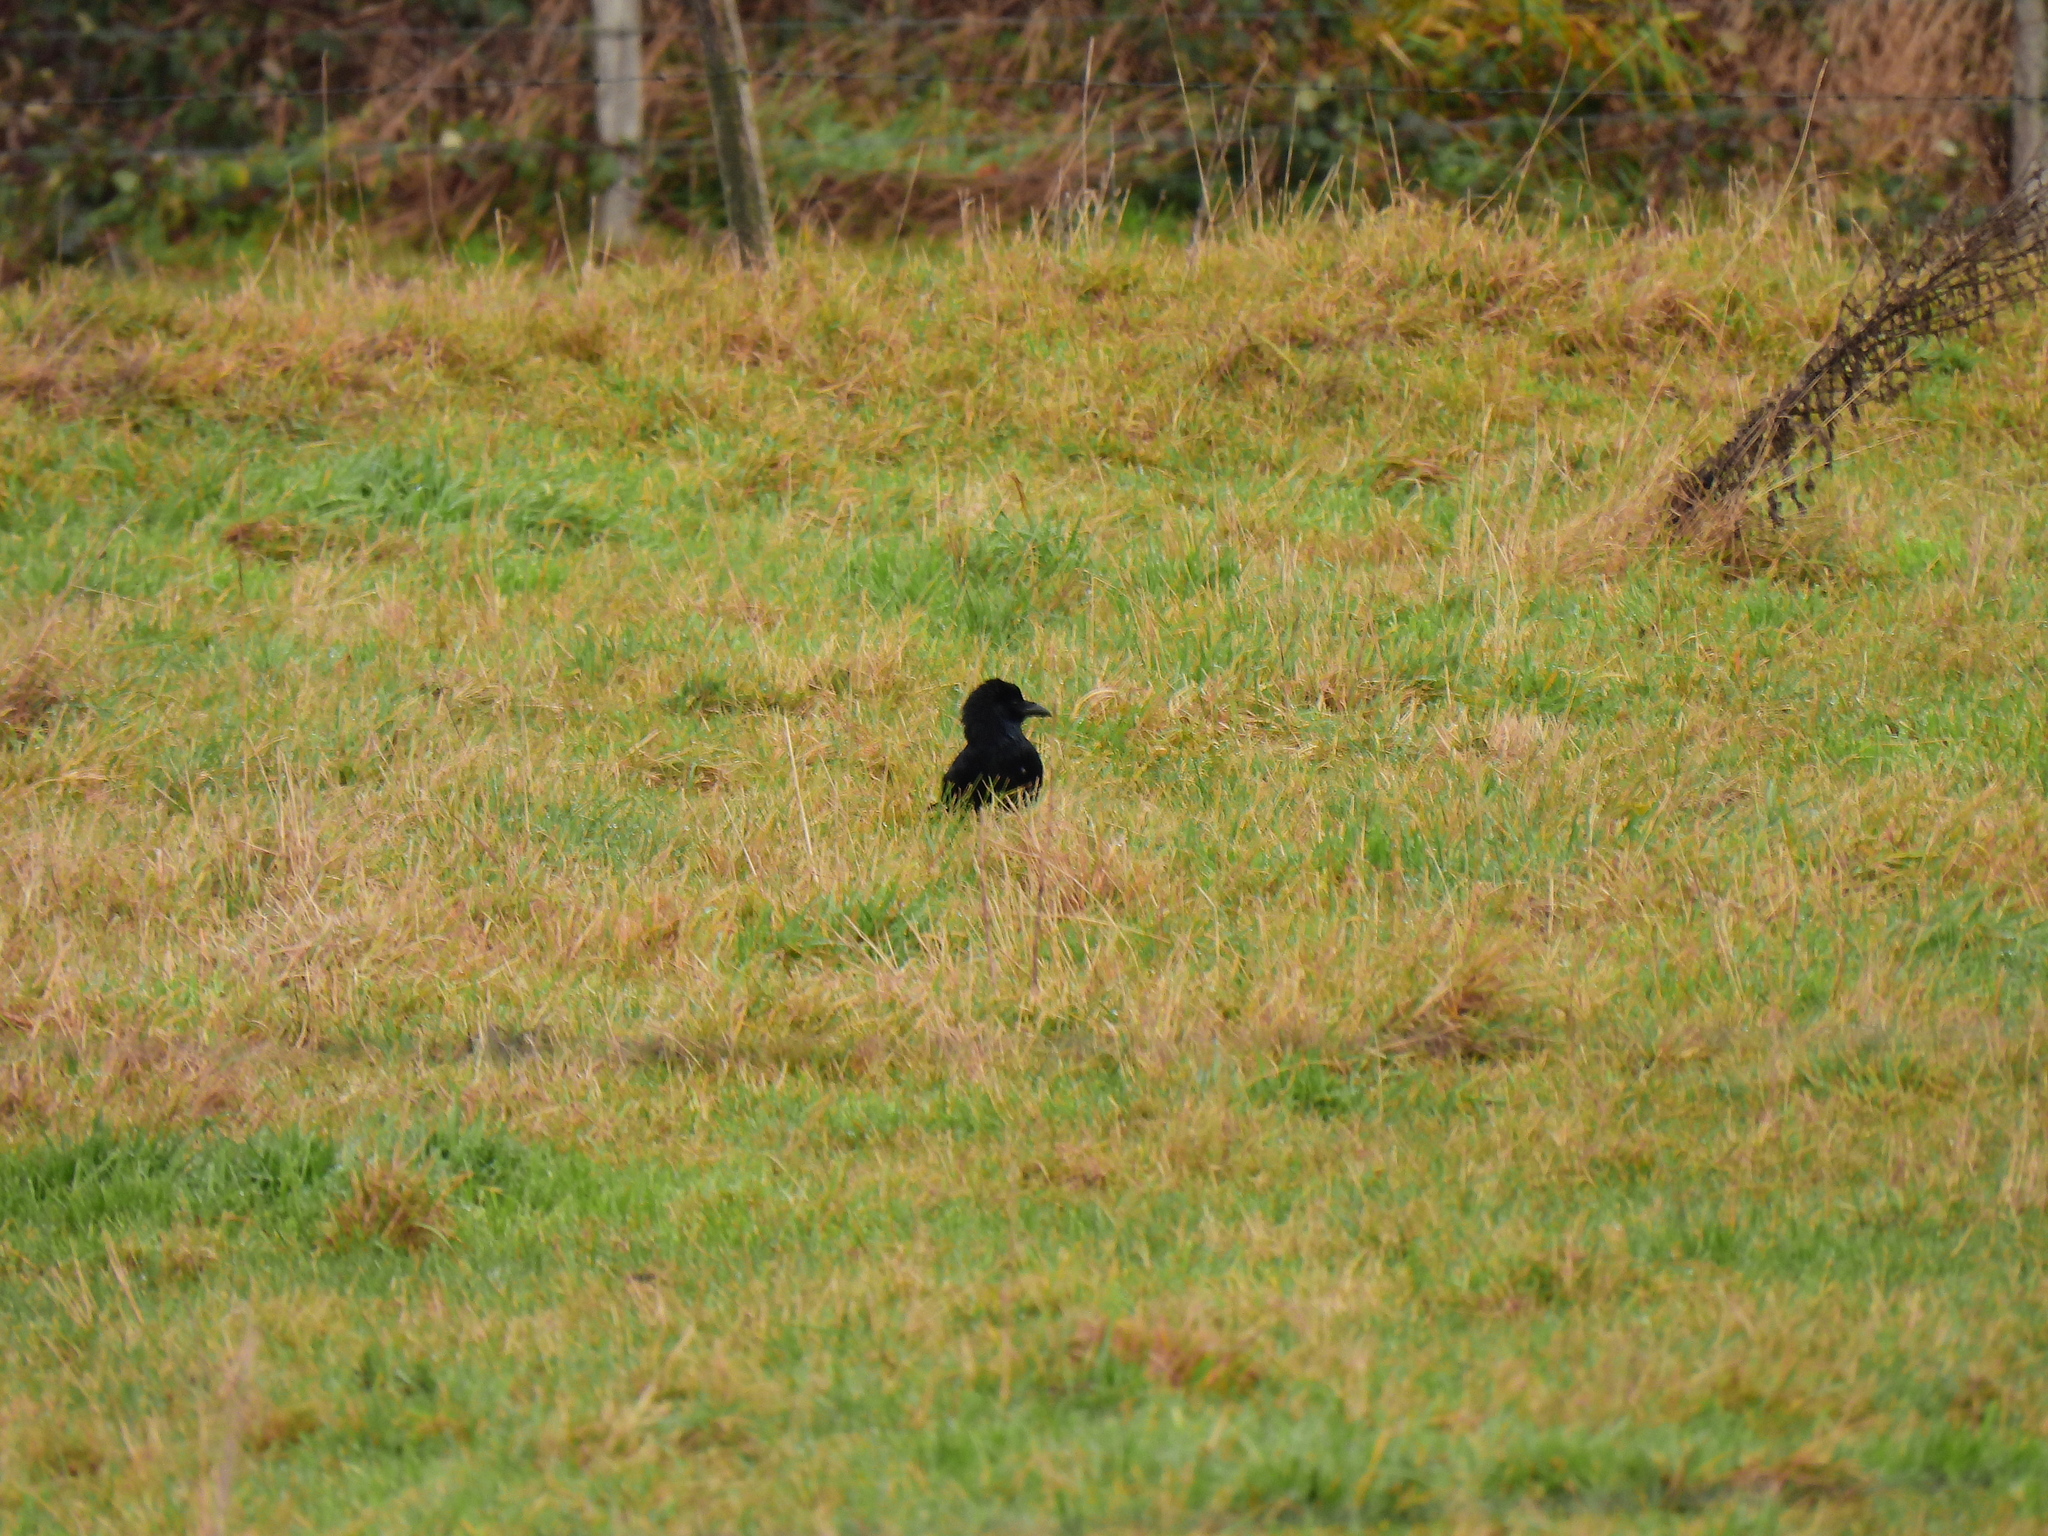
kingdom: Animalia
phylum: Chordata
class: Aves
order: Passeriformes
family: Corvidae
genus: Corvus
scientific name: Corvus corone
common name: Carrion crow
